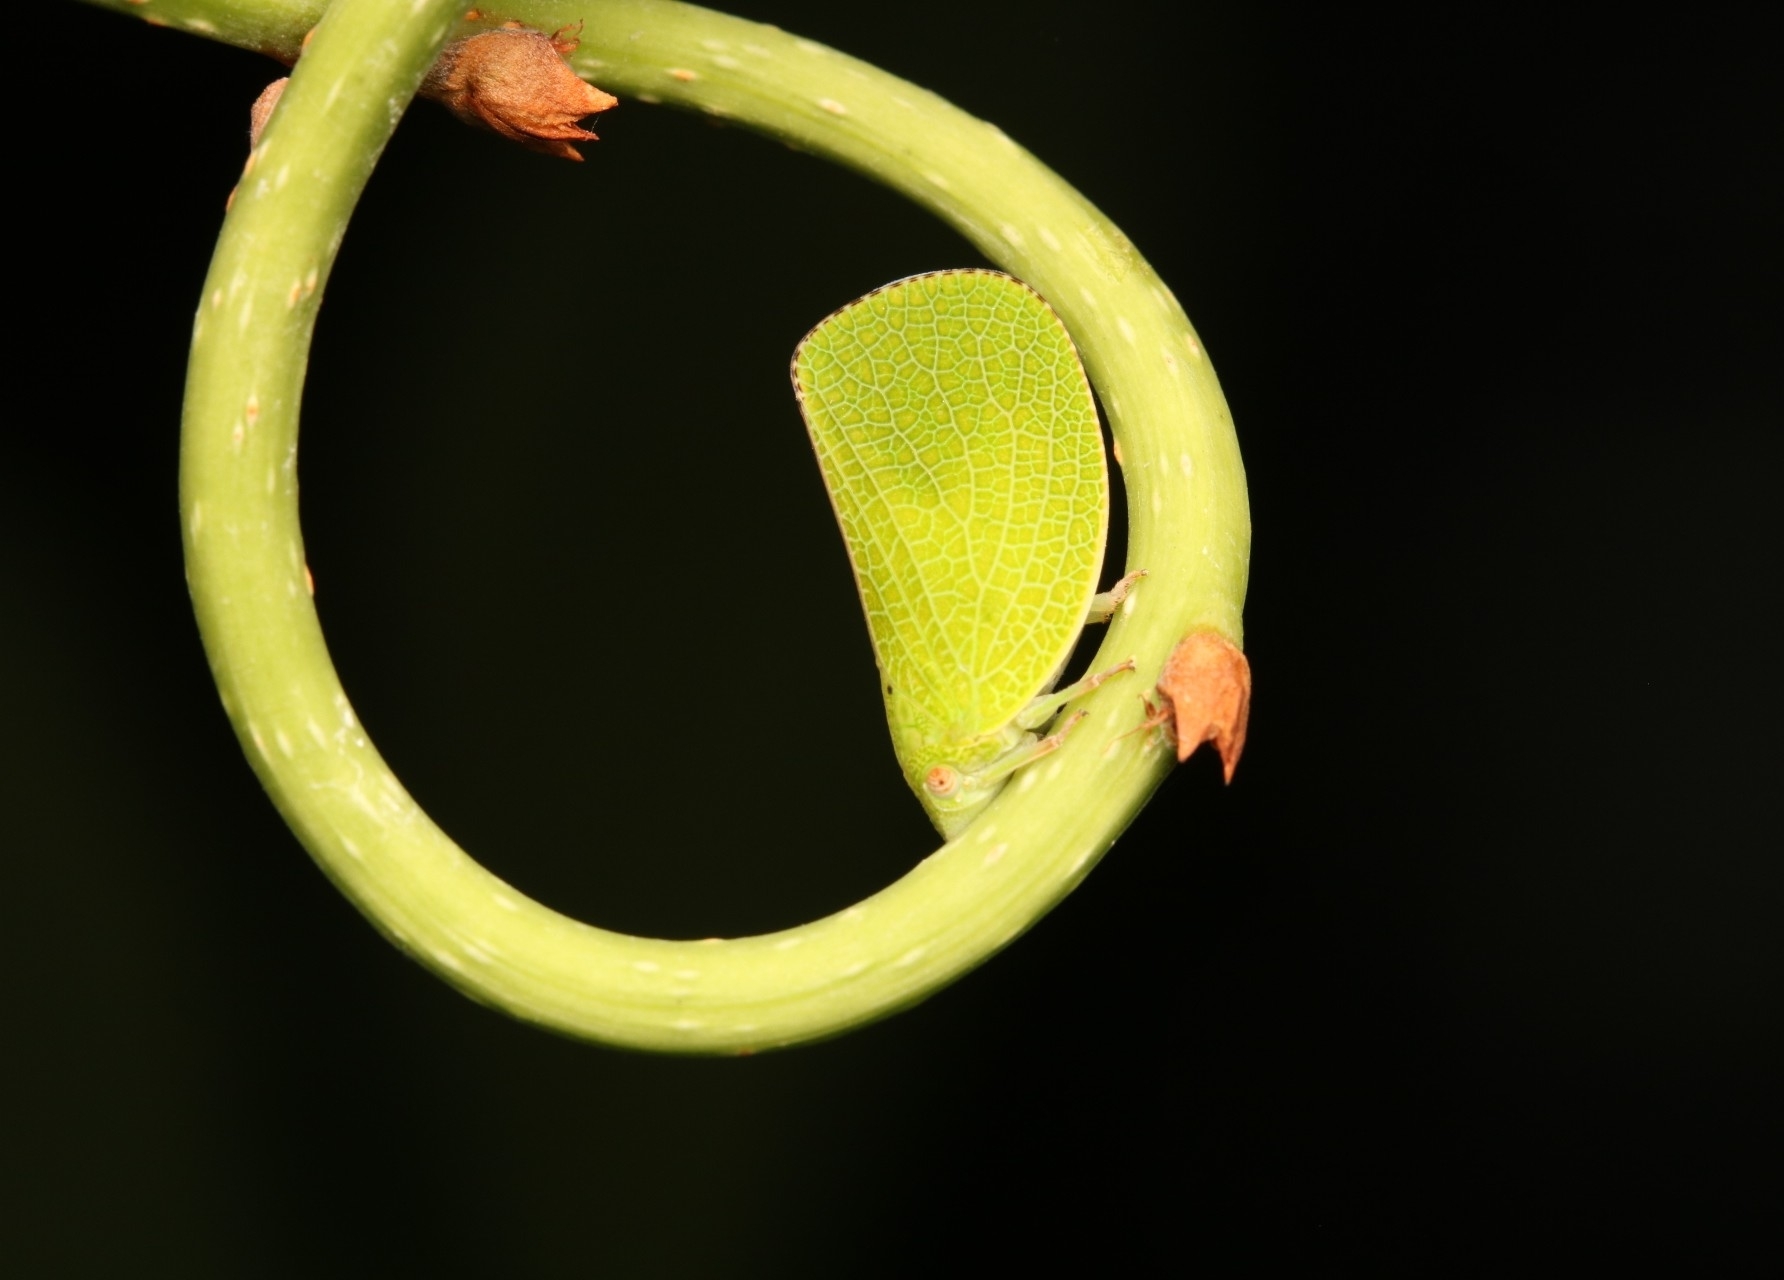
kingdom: Animalia
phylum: Arthropoda
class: Insecta
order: Hemiptera
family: Acanaloniidae
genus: Acanalonia
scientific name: Acanalonia conica
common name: Green cone-headed planthopper
